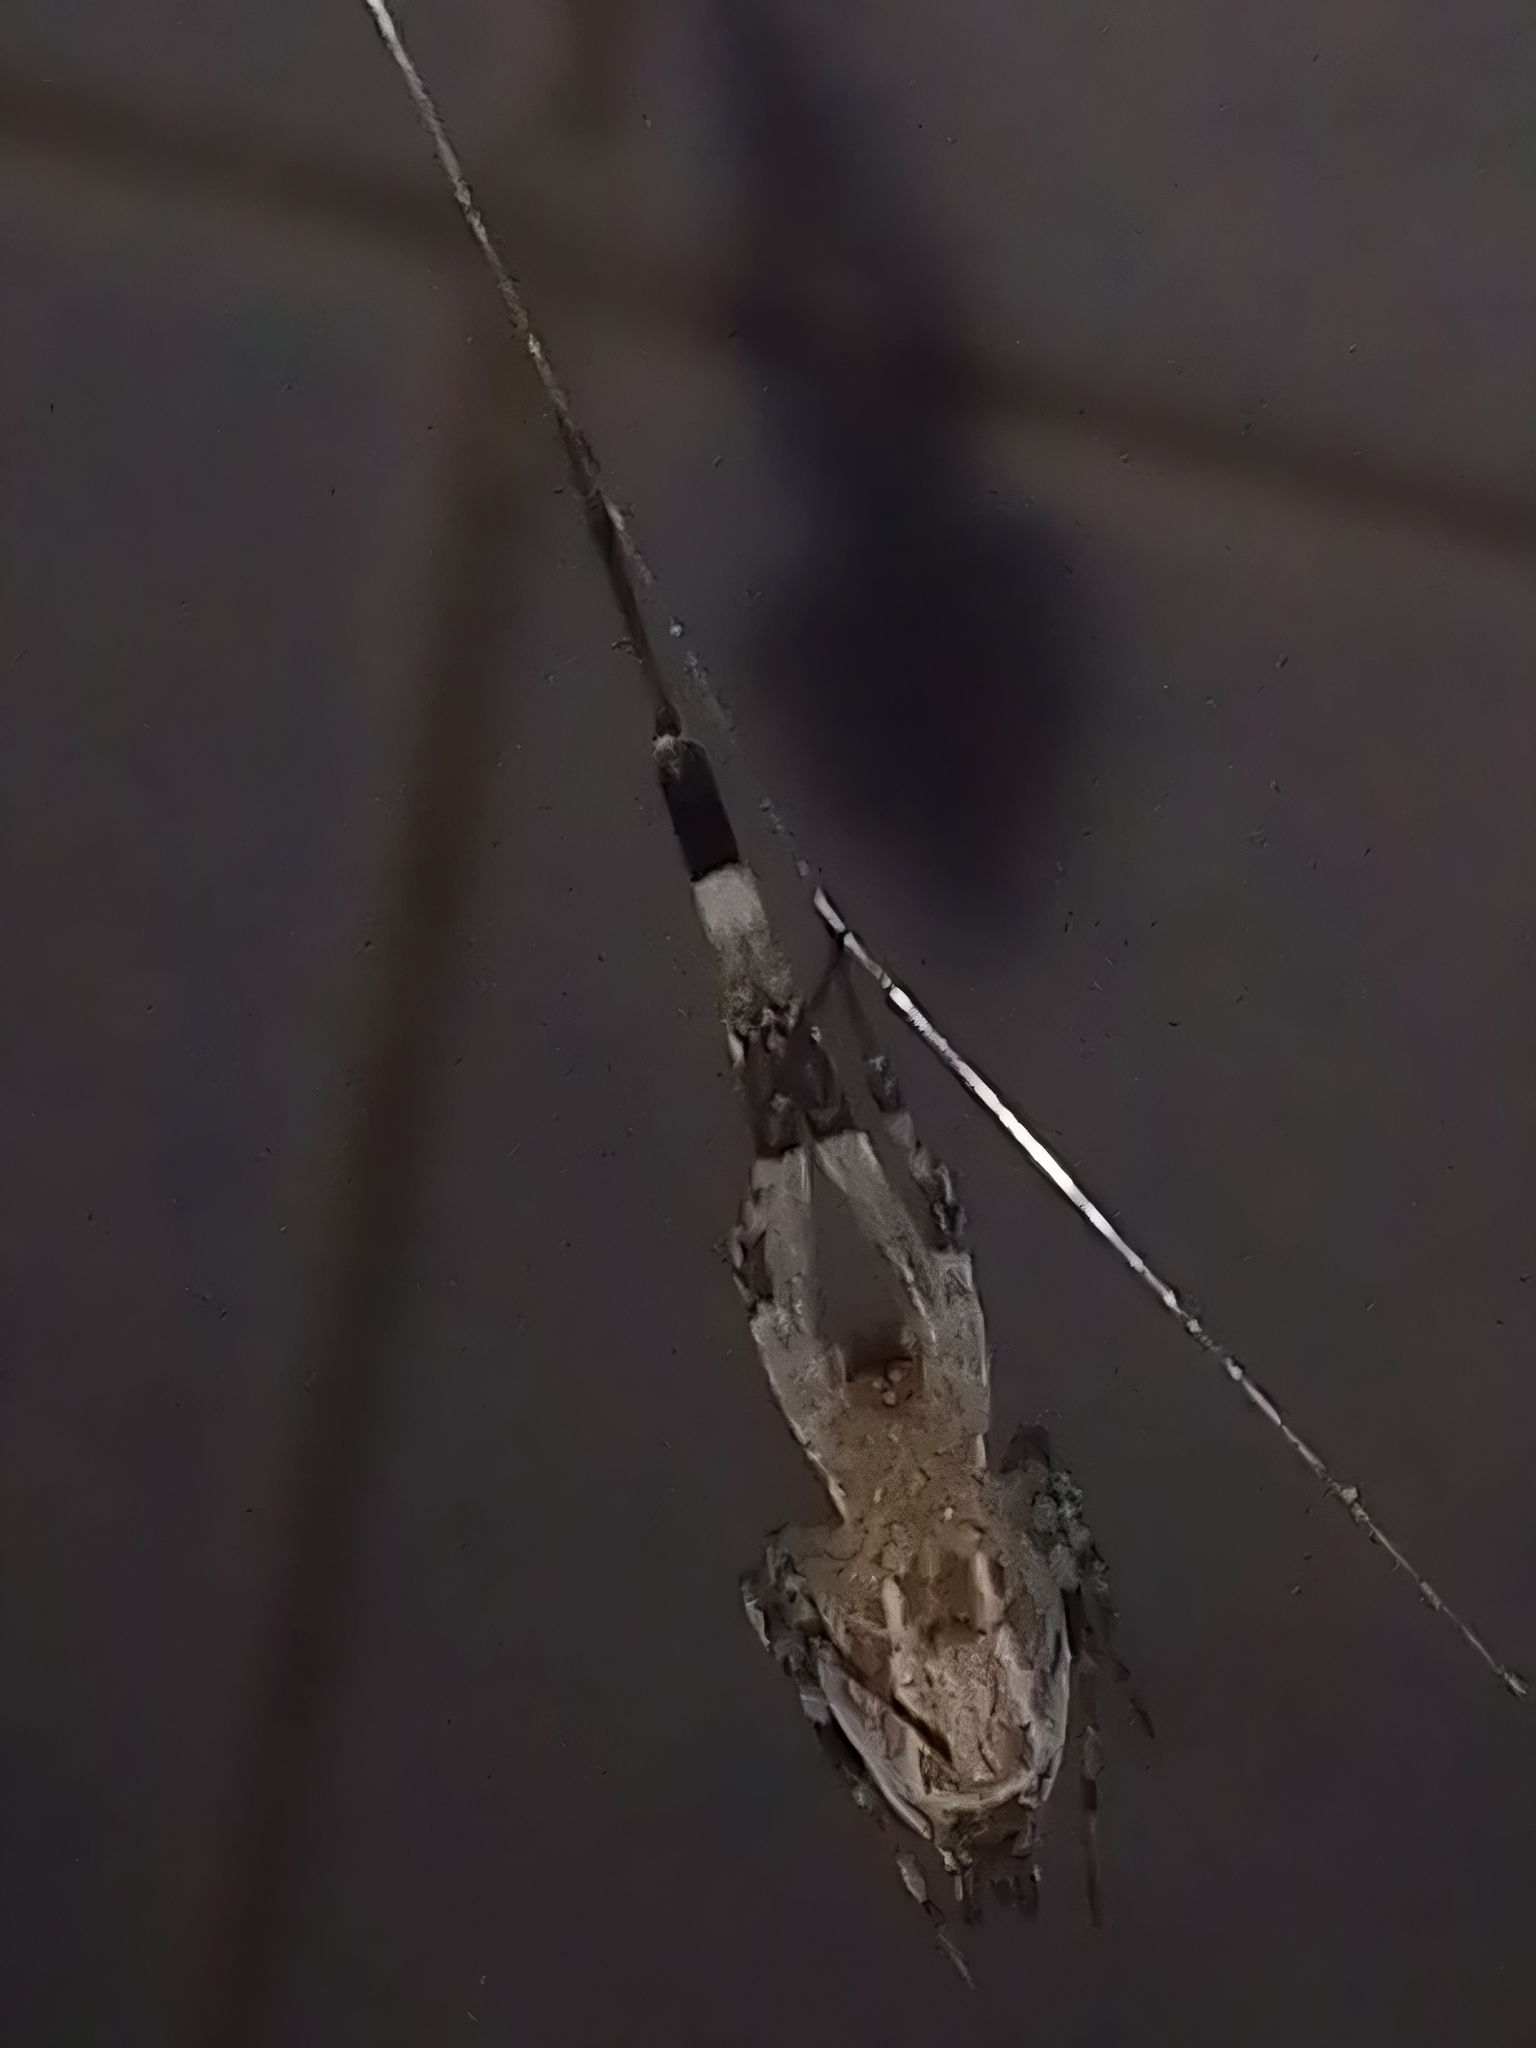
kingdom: Animalia
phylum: Arthropoda
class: Arachnida
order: Araneae
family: Uloboridae
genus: Zosis
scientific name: Zosis geniculata
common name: Hackled orb weavers
